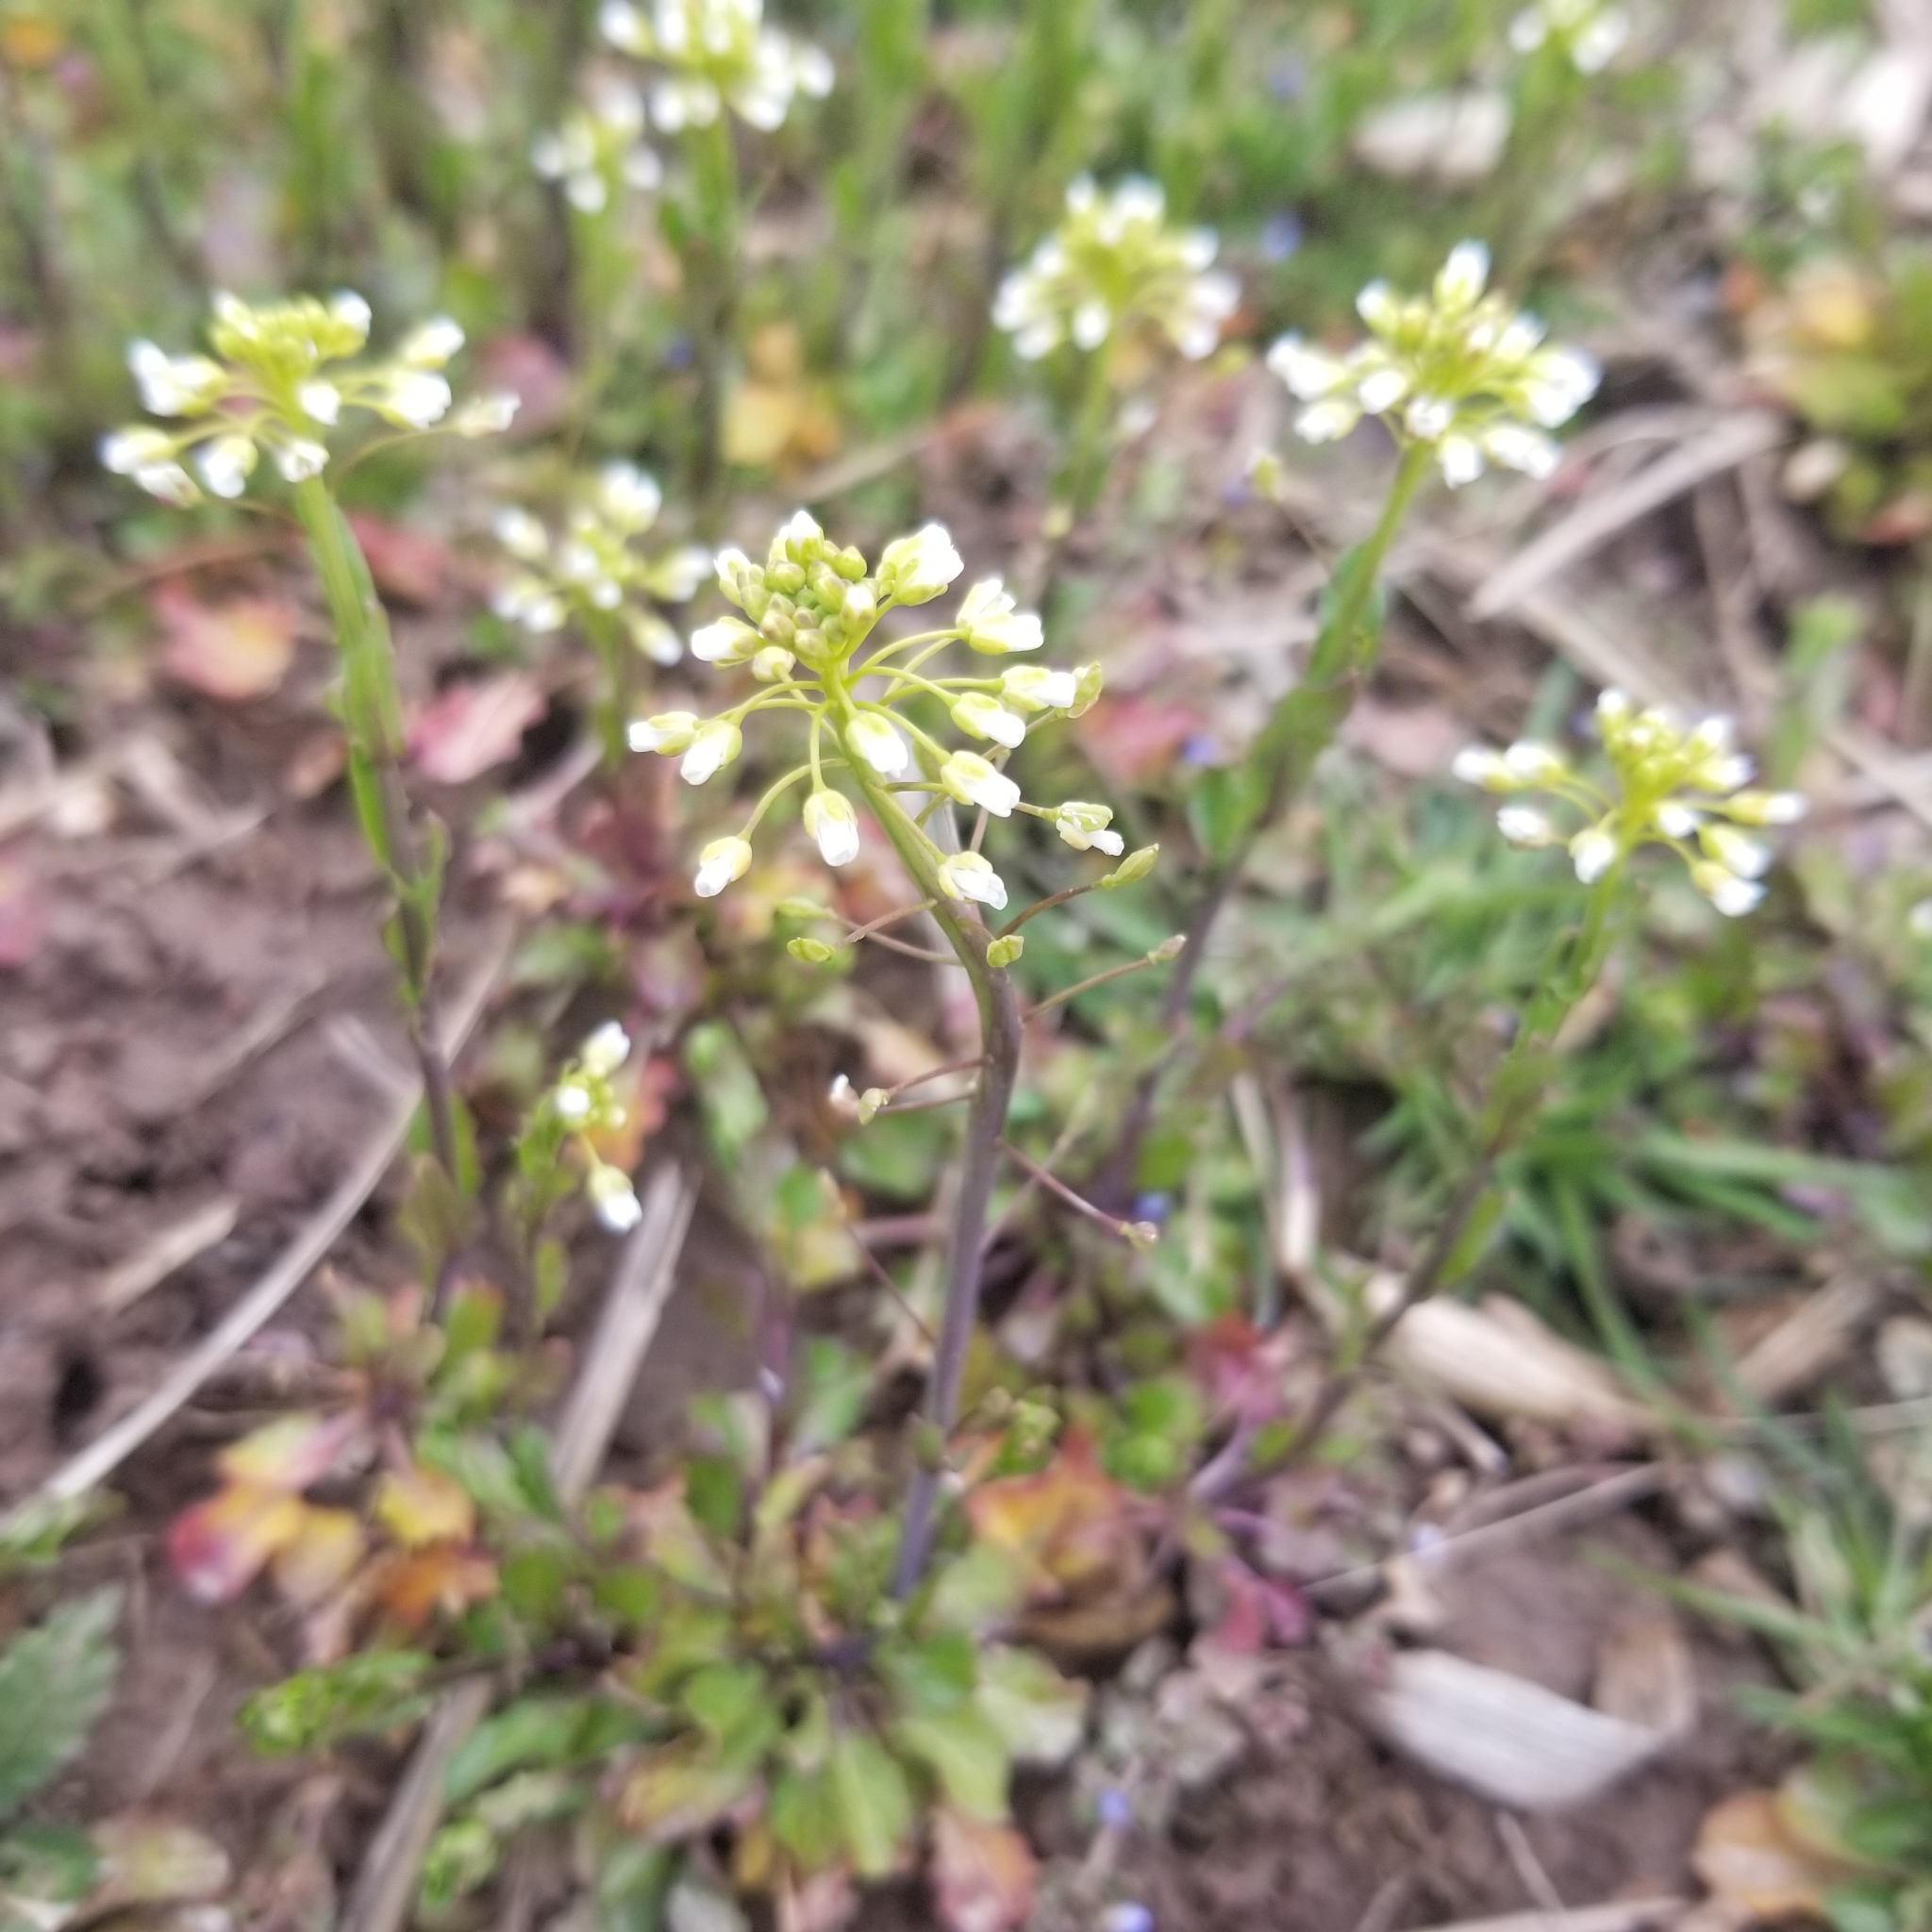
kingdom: Plantae
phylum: Tracheophyta
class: Magnoliopsida
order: Brassicales
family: Brassicaceae
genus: Mummenhoffia
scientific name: Mummenhoffia alliacea
